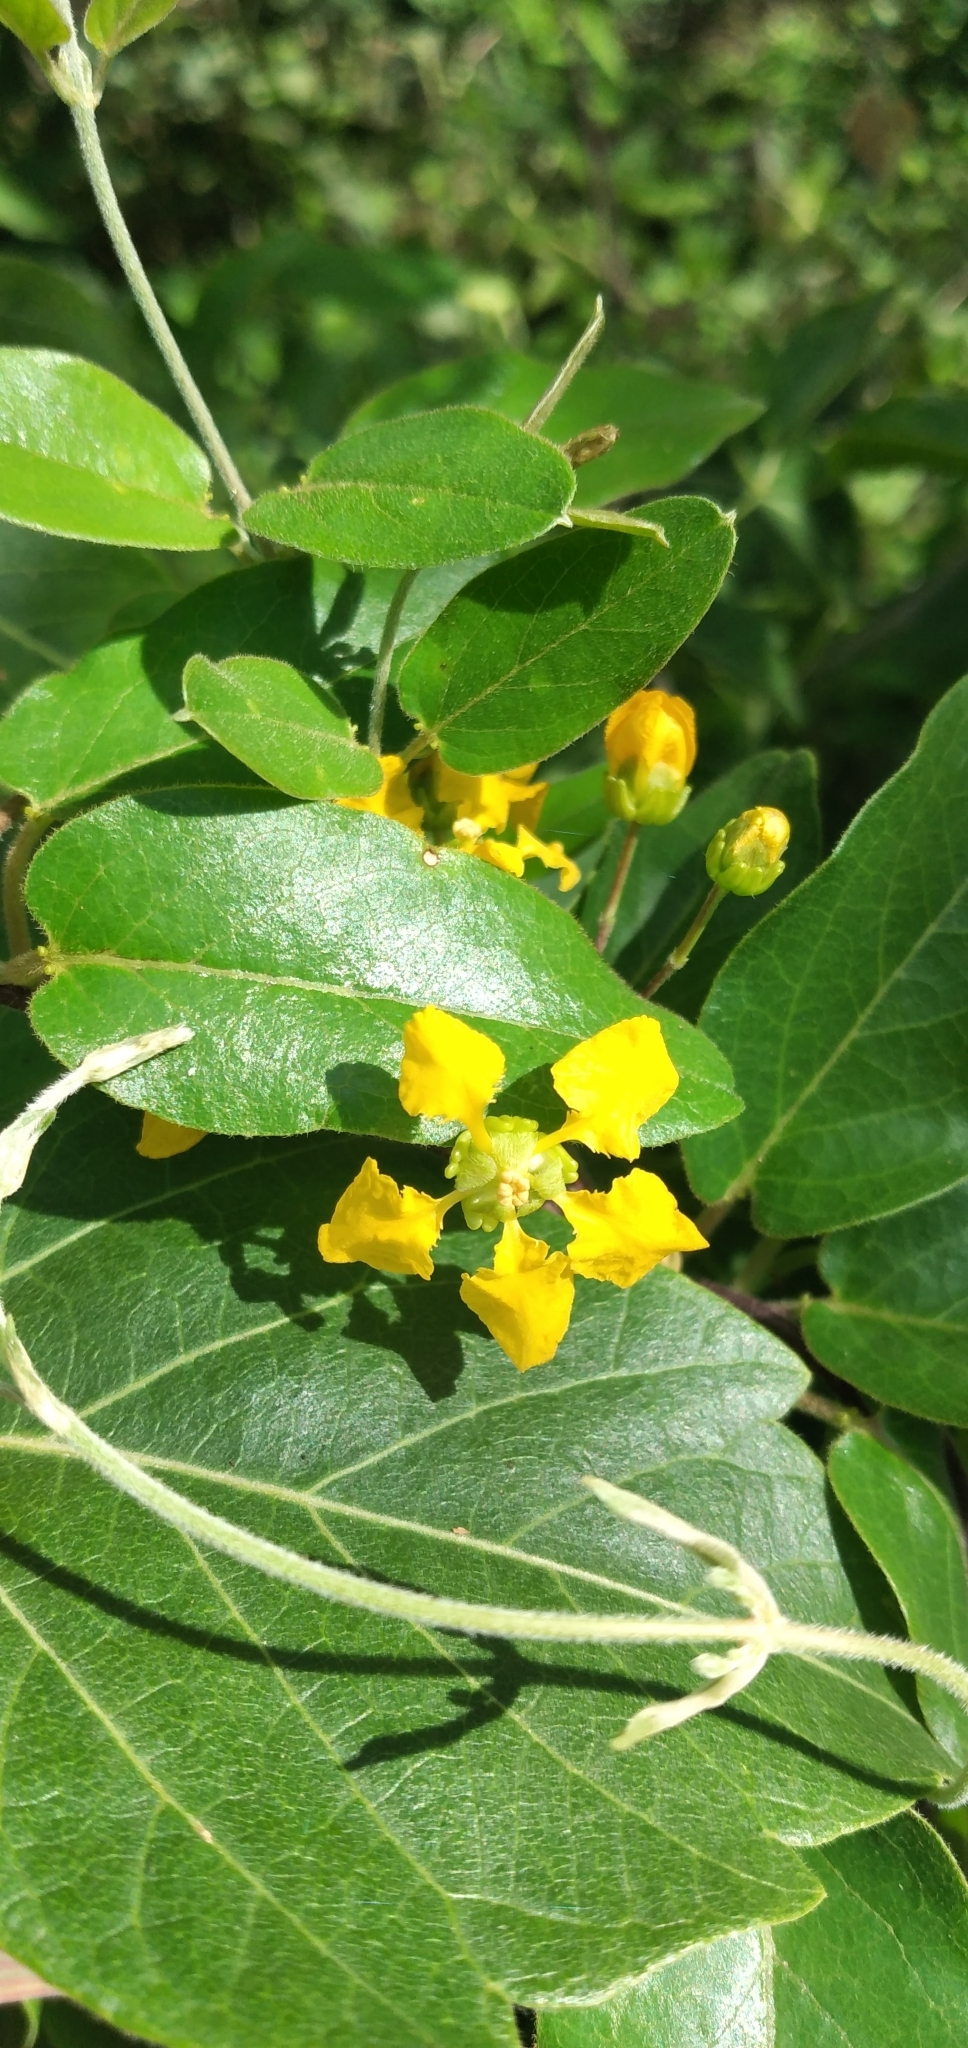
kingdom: Plantae
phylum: Tracheophyta
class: Magnoliopsida
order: Malpighiales
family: Malpighiaceae
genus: Janusia
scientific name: Janusia guaranitica
